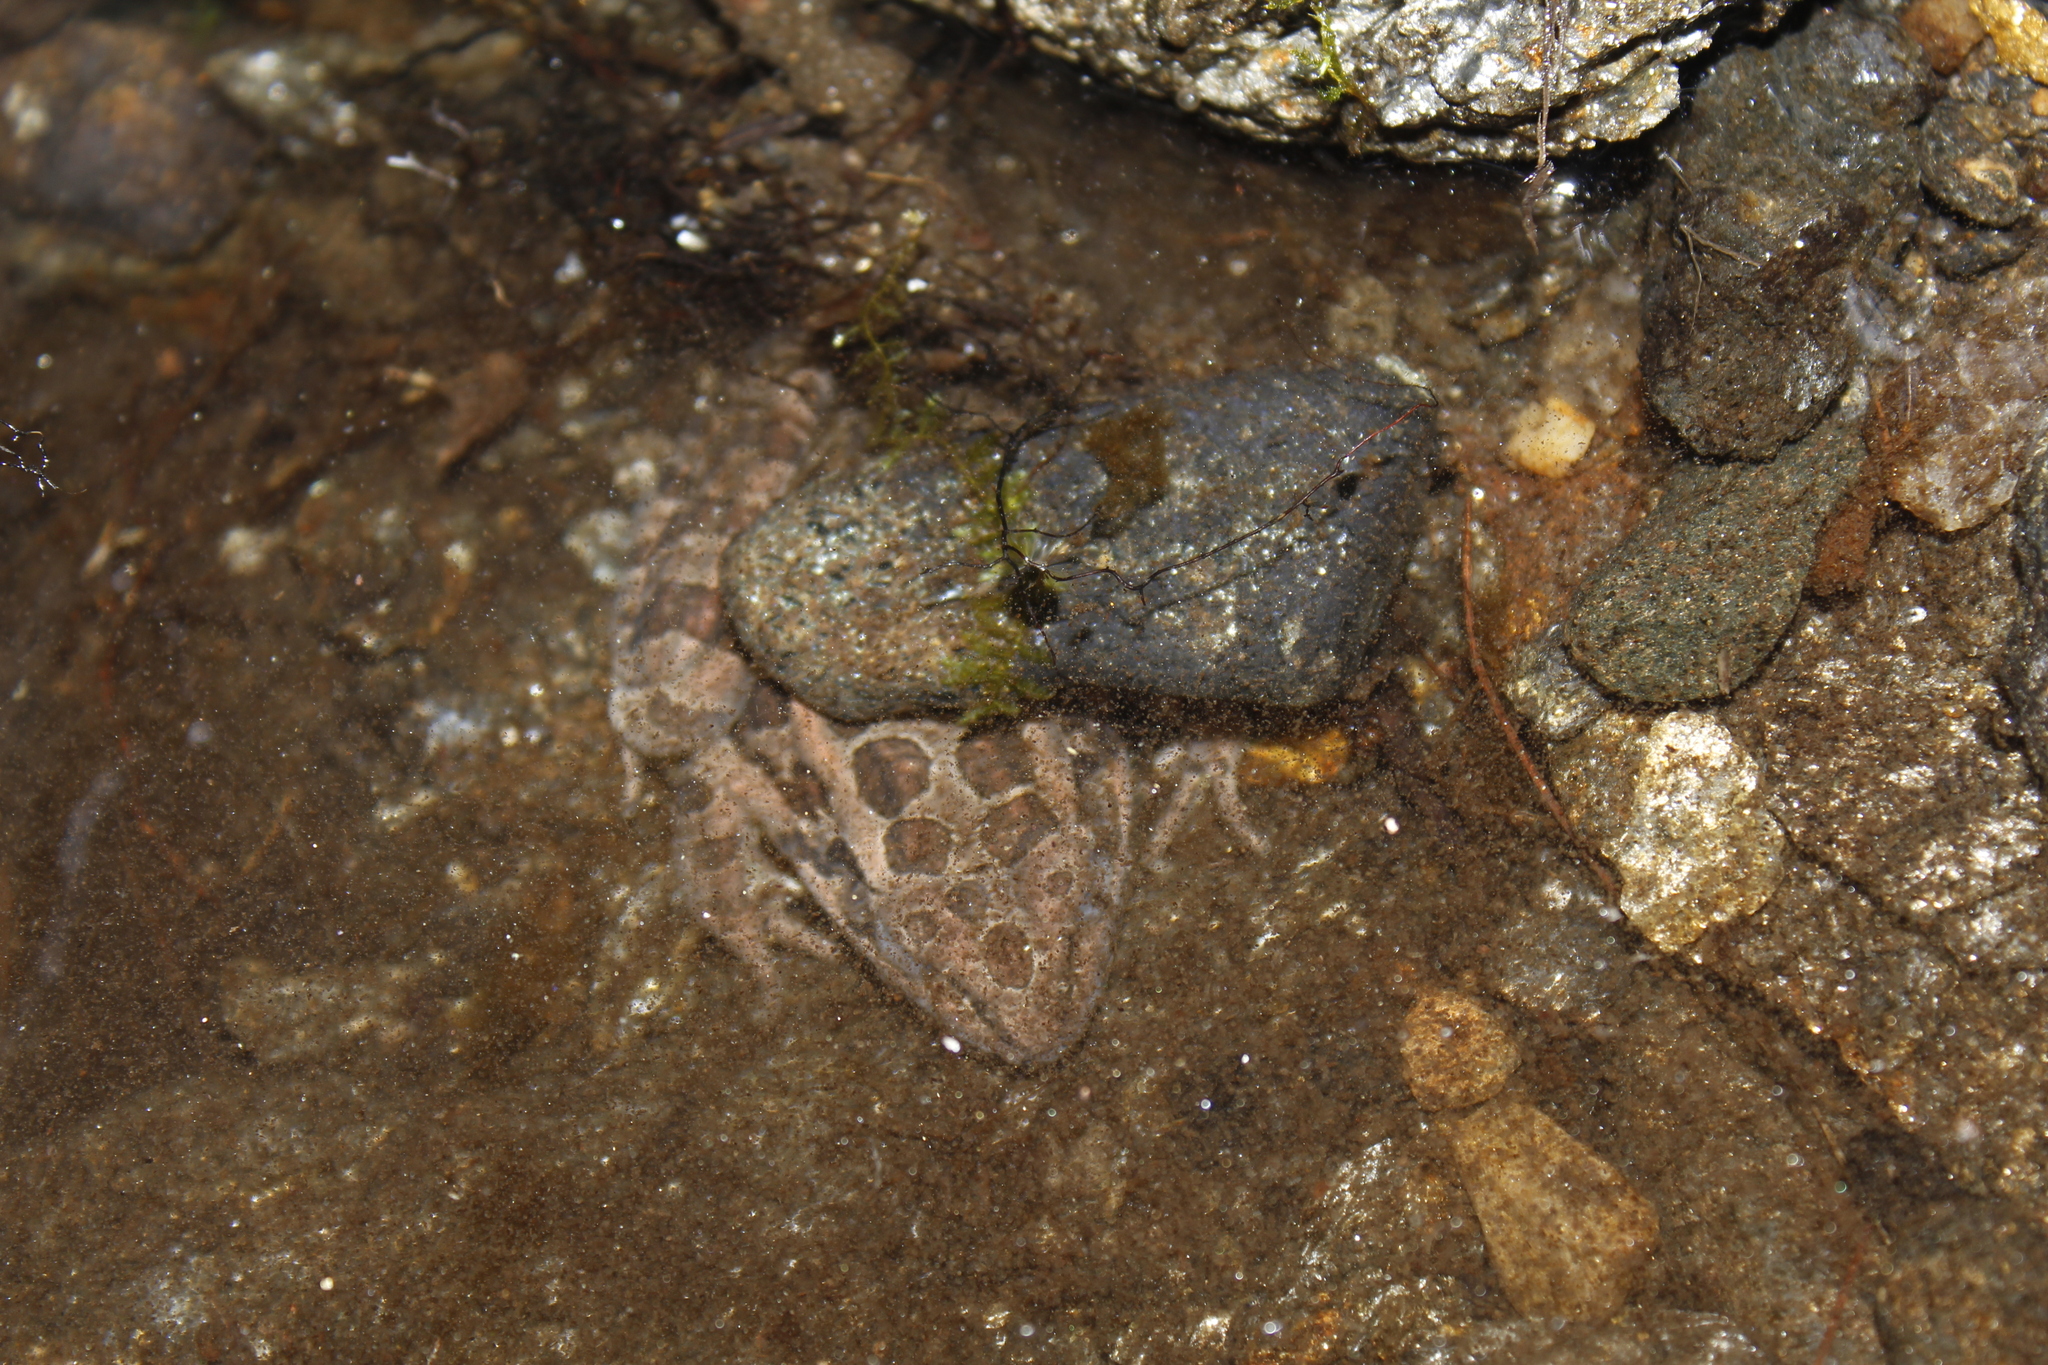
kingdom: Animalia
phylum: Chordata
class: Amphibia
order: Anura
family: Ranidae
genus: Lithobates
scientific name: Lithobates palustris
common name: Pickerel frog
